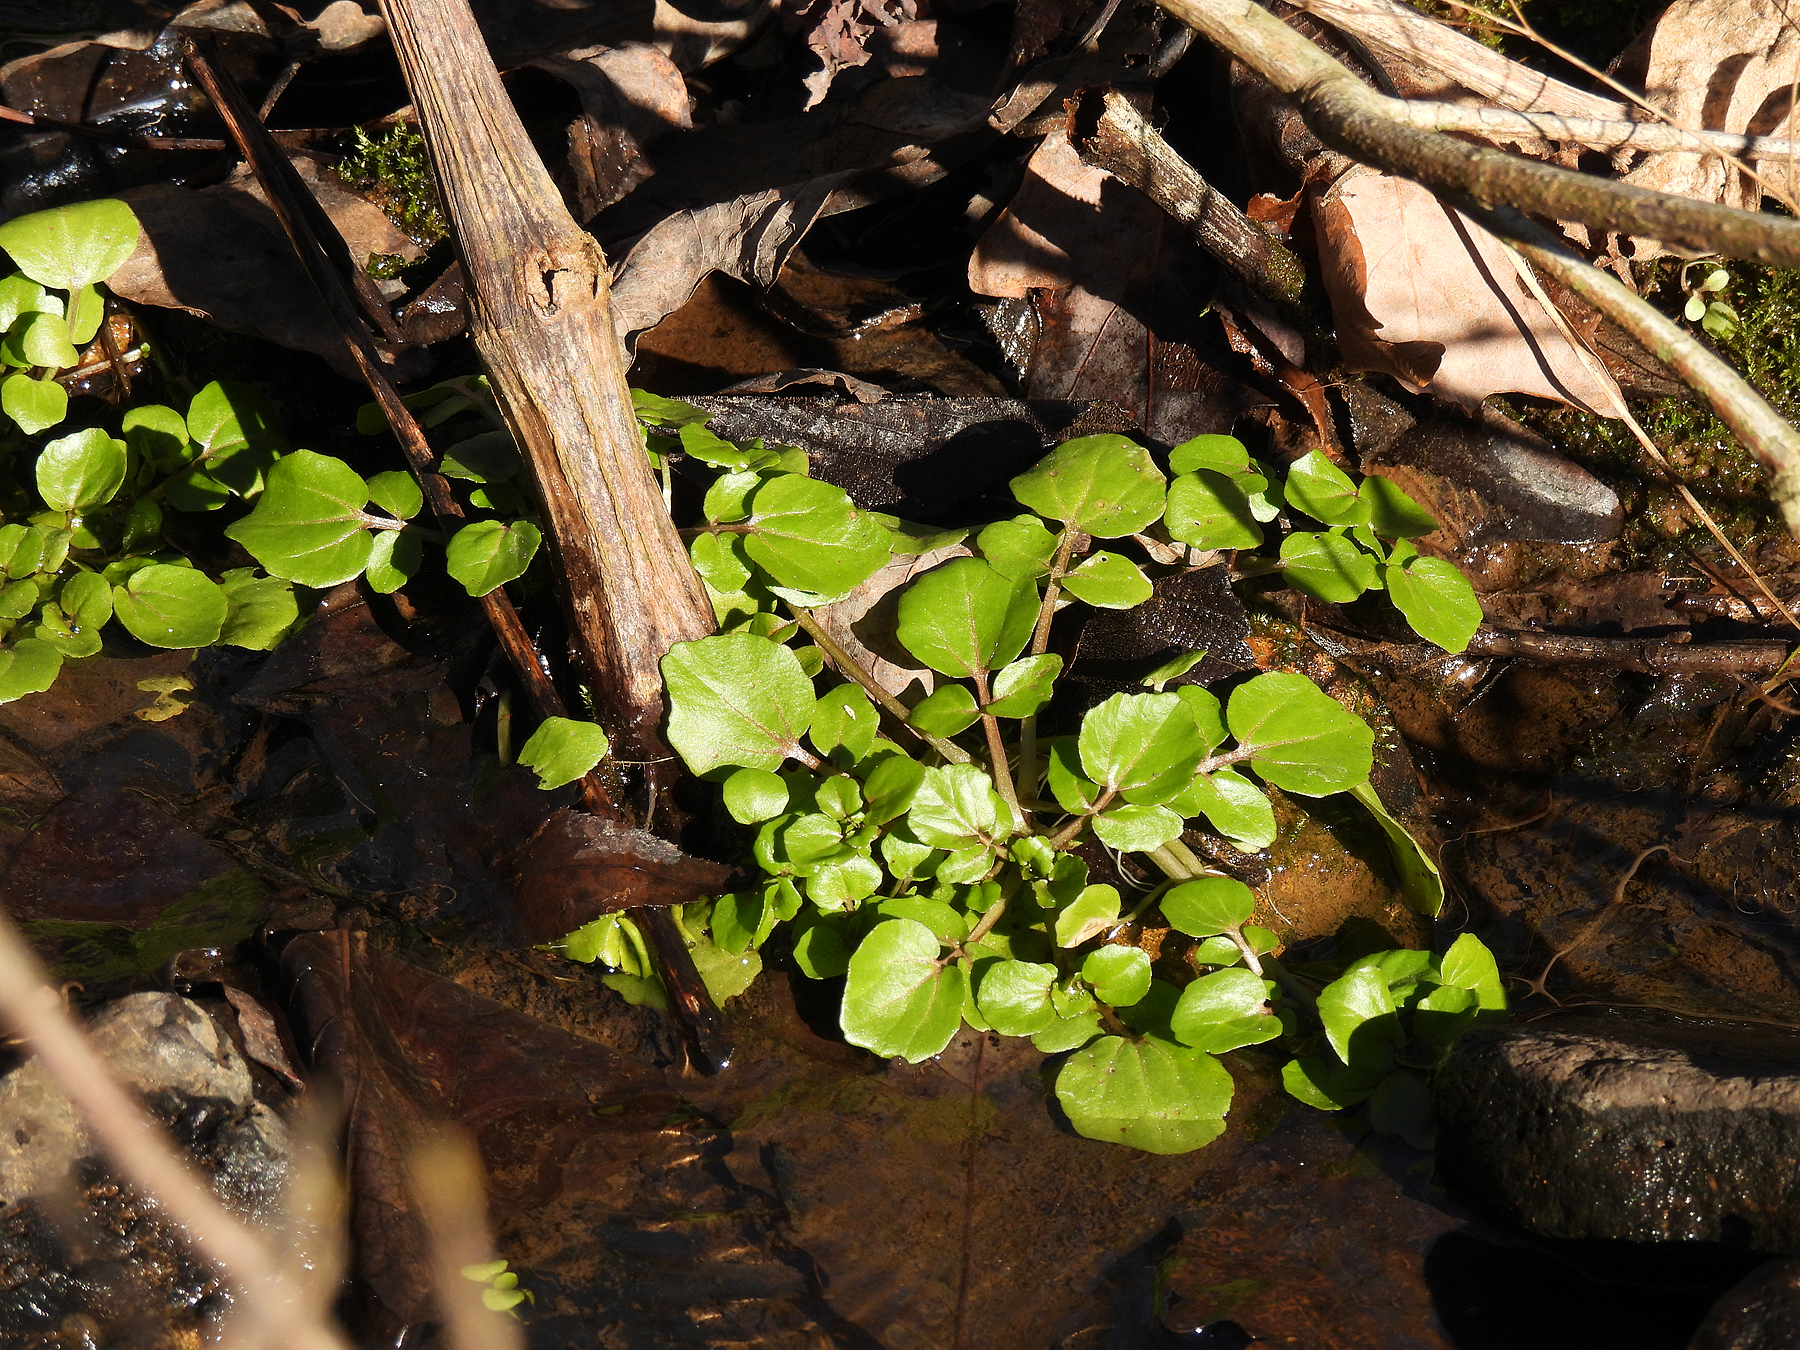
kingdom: Plantae
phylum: Tracheophyta
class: Magnoliopsida
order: Brassicales
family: Brassicaceae
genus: Nasturtium
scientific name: Nasturtium officinale
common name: Watercress
